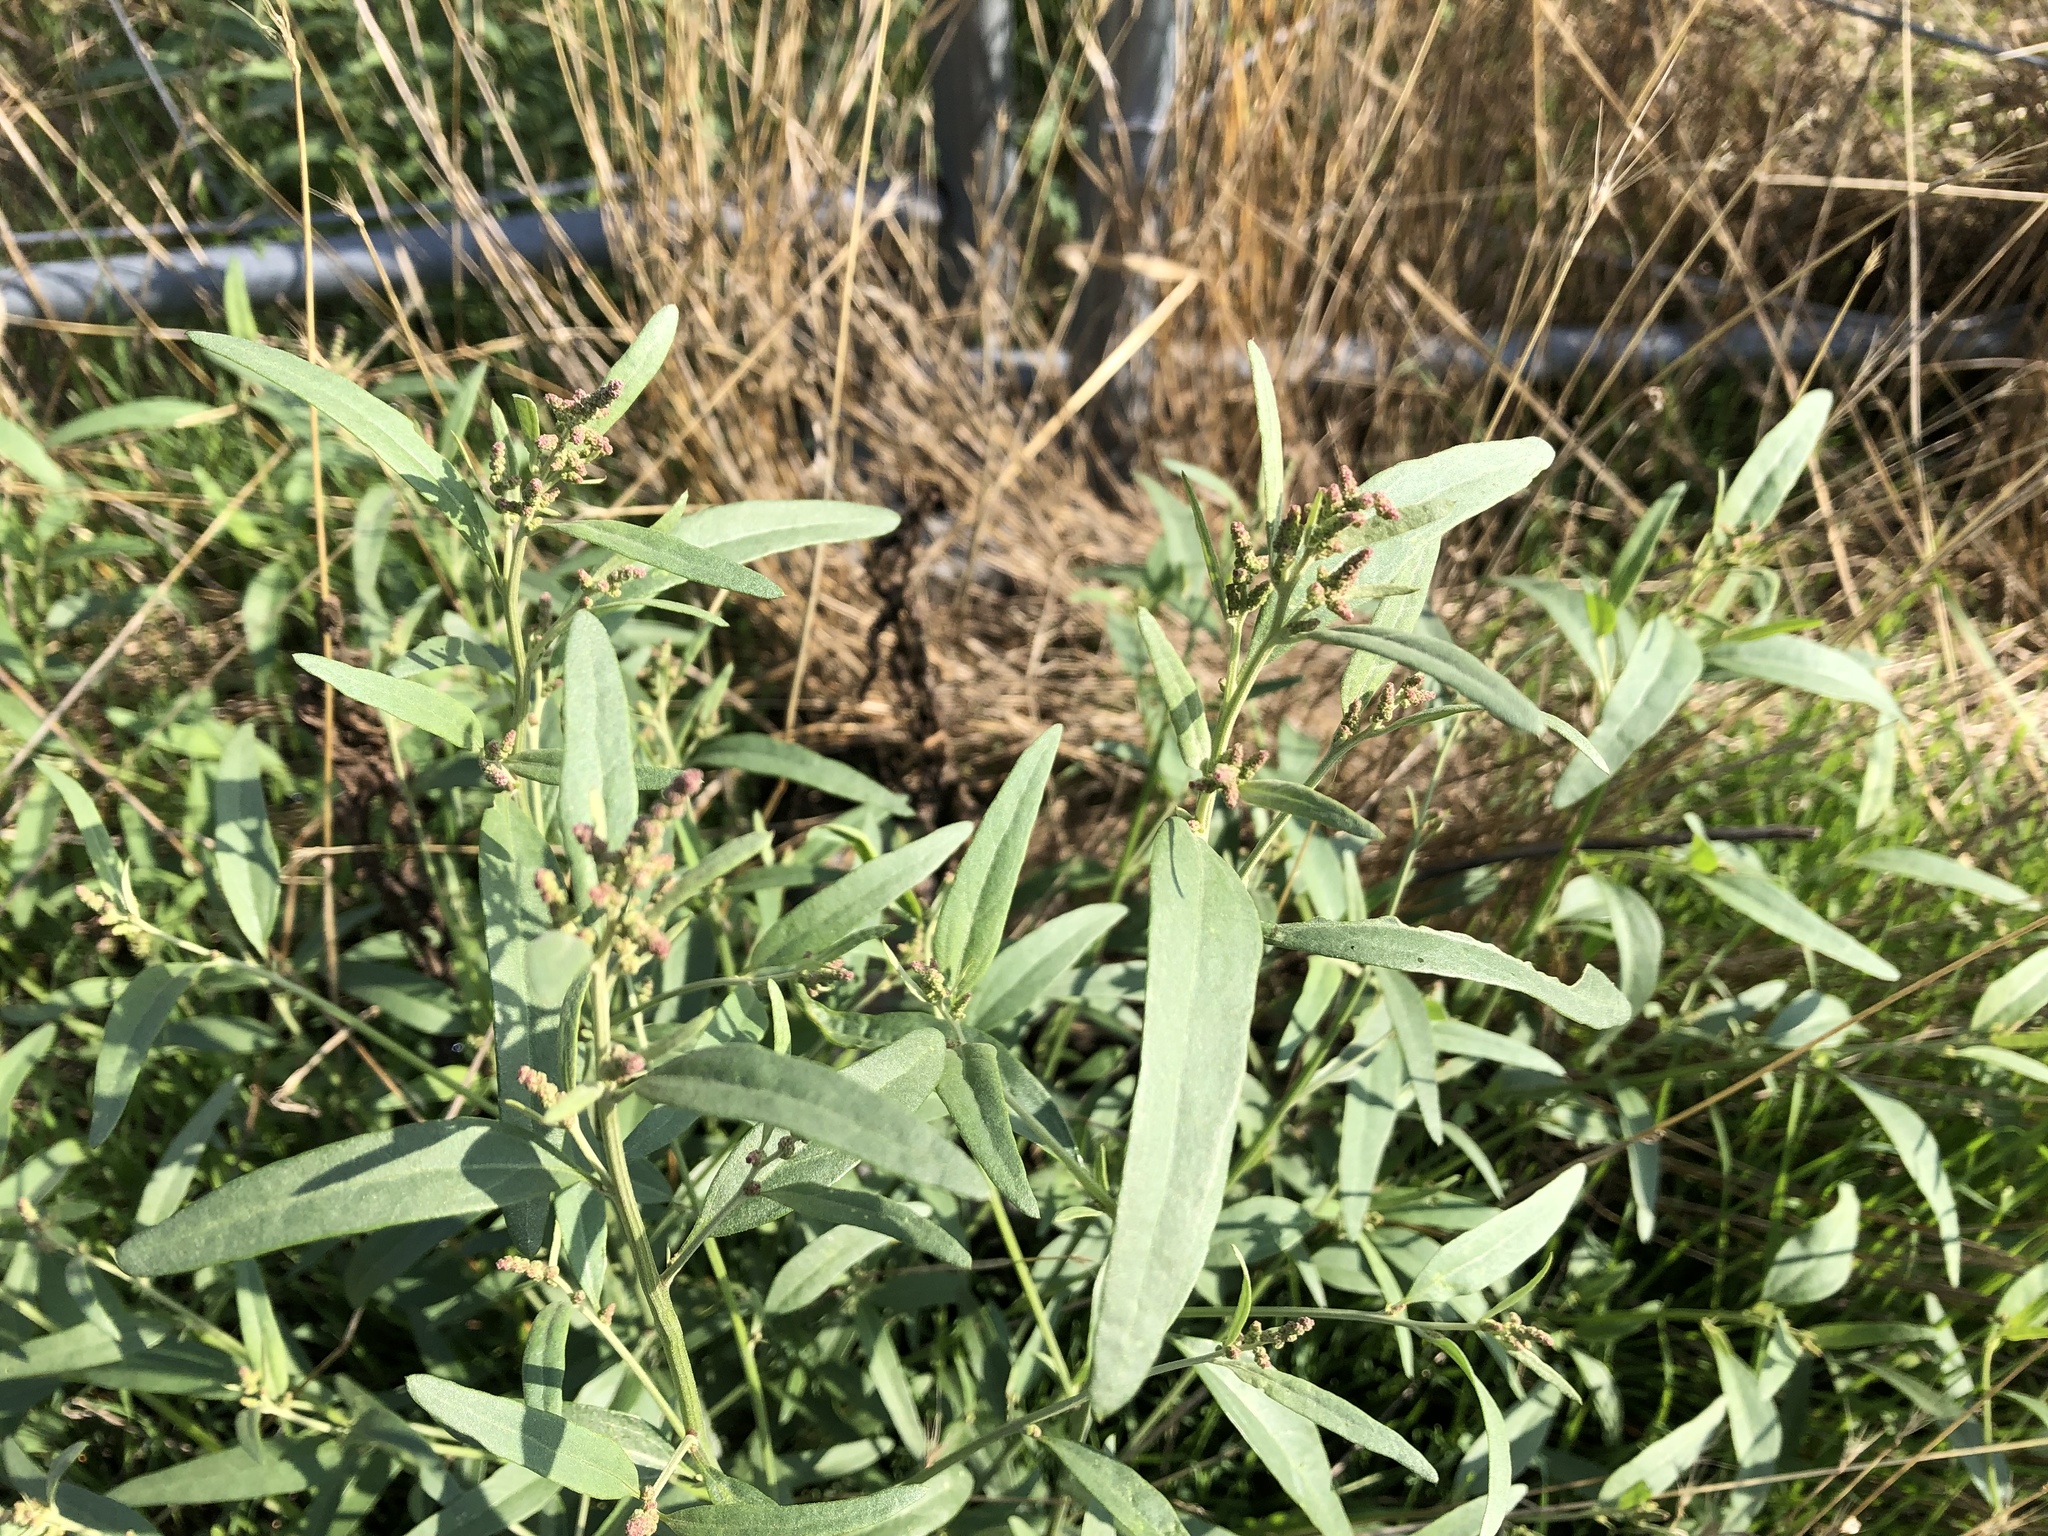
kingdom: Plantae
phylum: Tracheophyta
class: Magnoliopsida
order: Caryophyllales
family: Amaranthaceae
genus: Atriplex
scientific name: Atriplex patula
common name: Common orache
